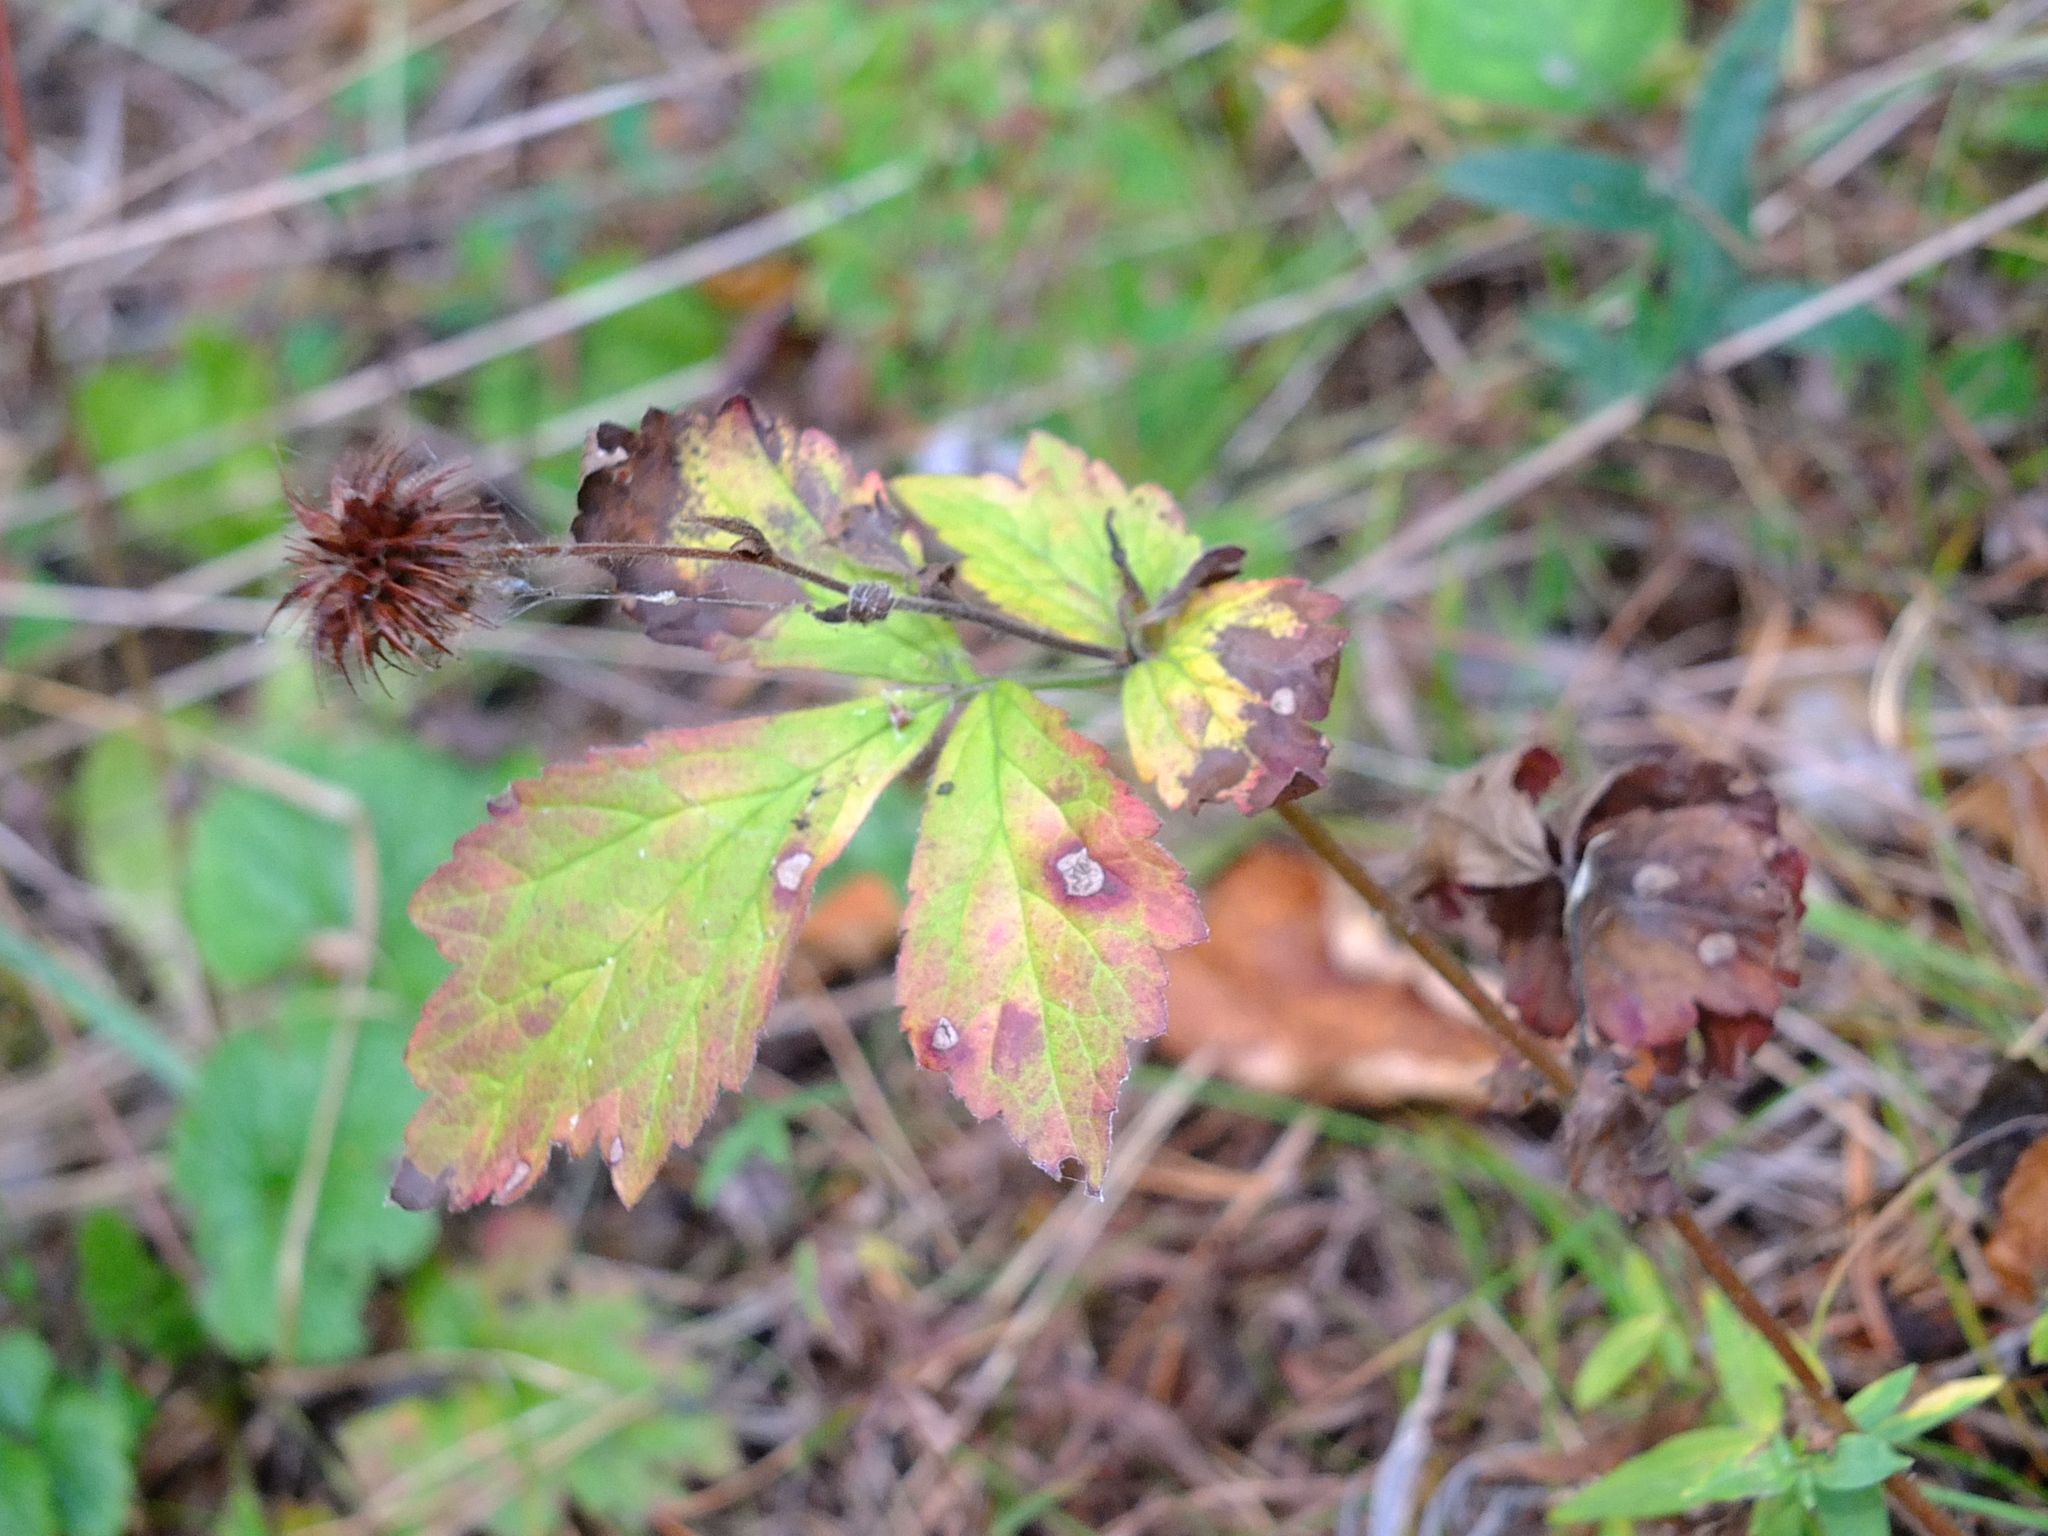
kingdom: Plantae
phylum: Tracheophyta
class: Magnoliopsida
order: Rosales
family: Rosaceae
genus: Geum
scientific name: Geum urbanum
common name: Wood avens
